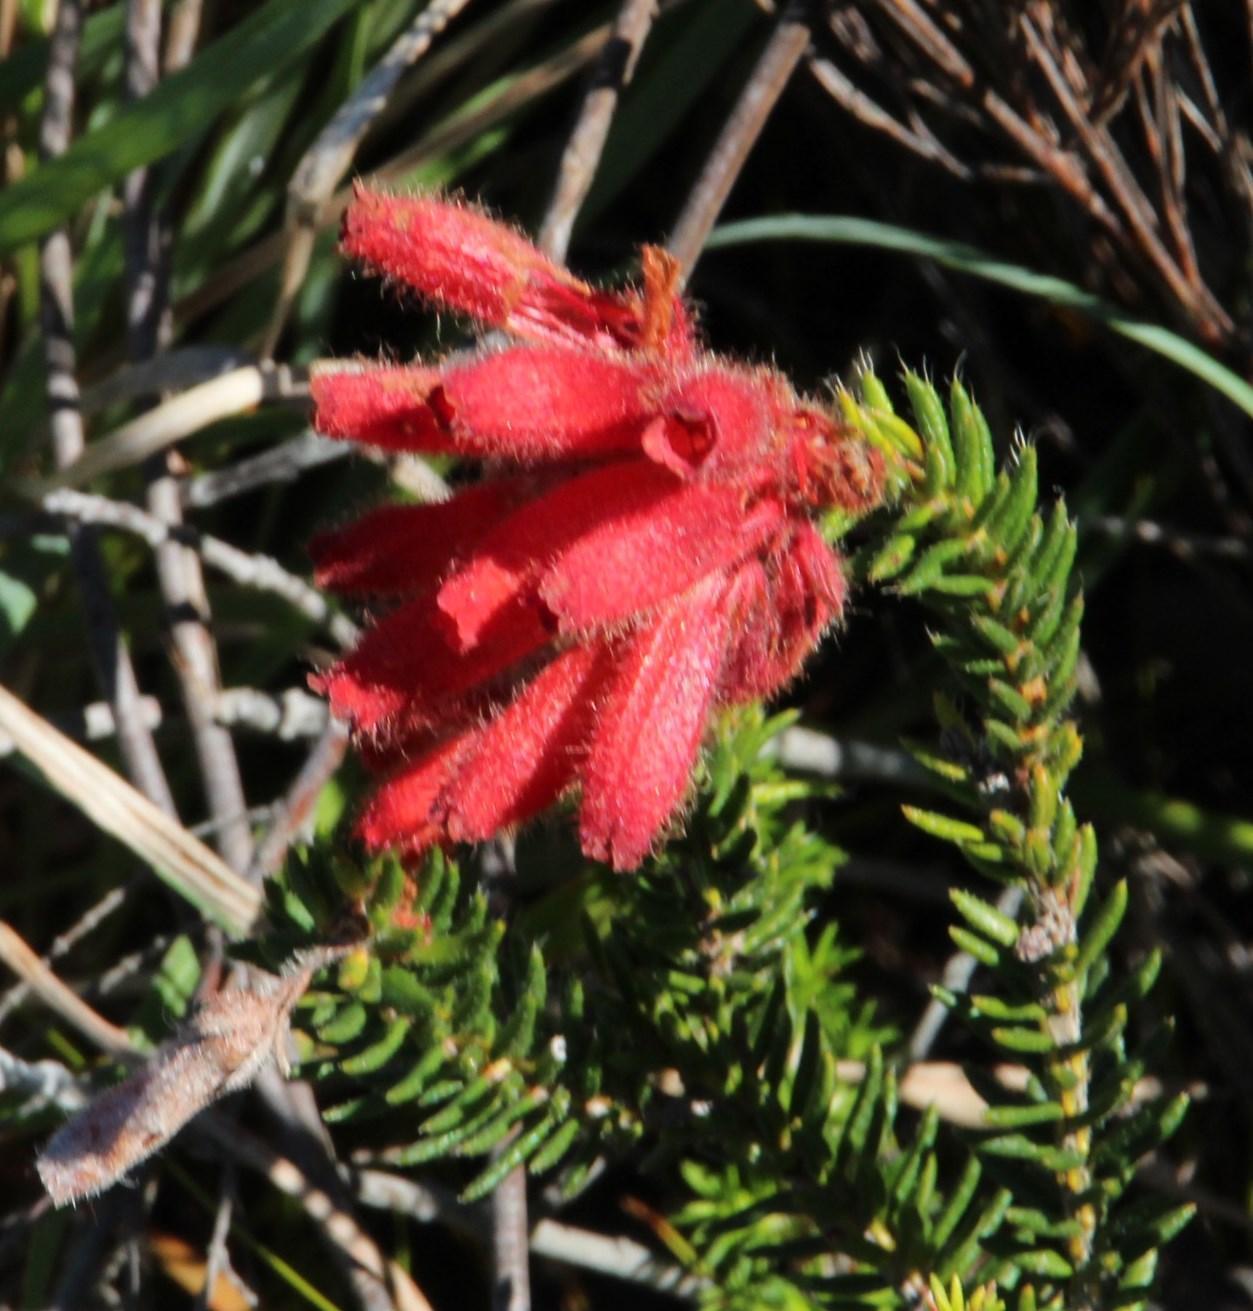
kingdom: Plantae
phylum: Tracheophyta
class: Magnoliopsida
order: Ericales
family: Ericaceae
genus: Erica
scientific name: Erica cerinthoides
